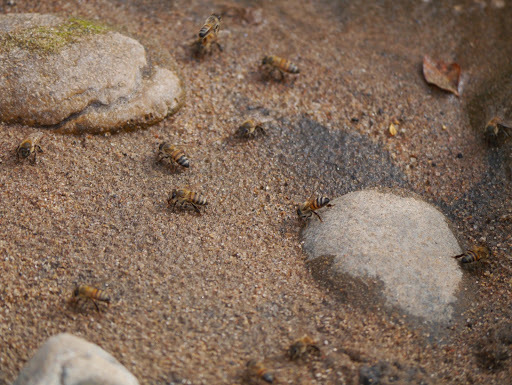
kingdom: Animalia
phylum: Arthropoda
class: Insecta
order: Hymenoptera
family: Apidae
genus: Apis
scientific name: Apis mellifera
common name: Honey bee
